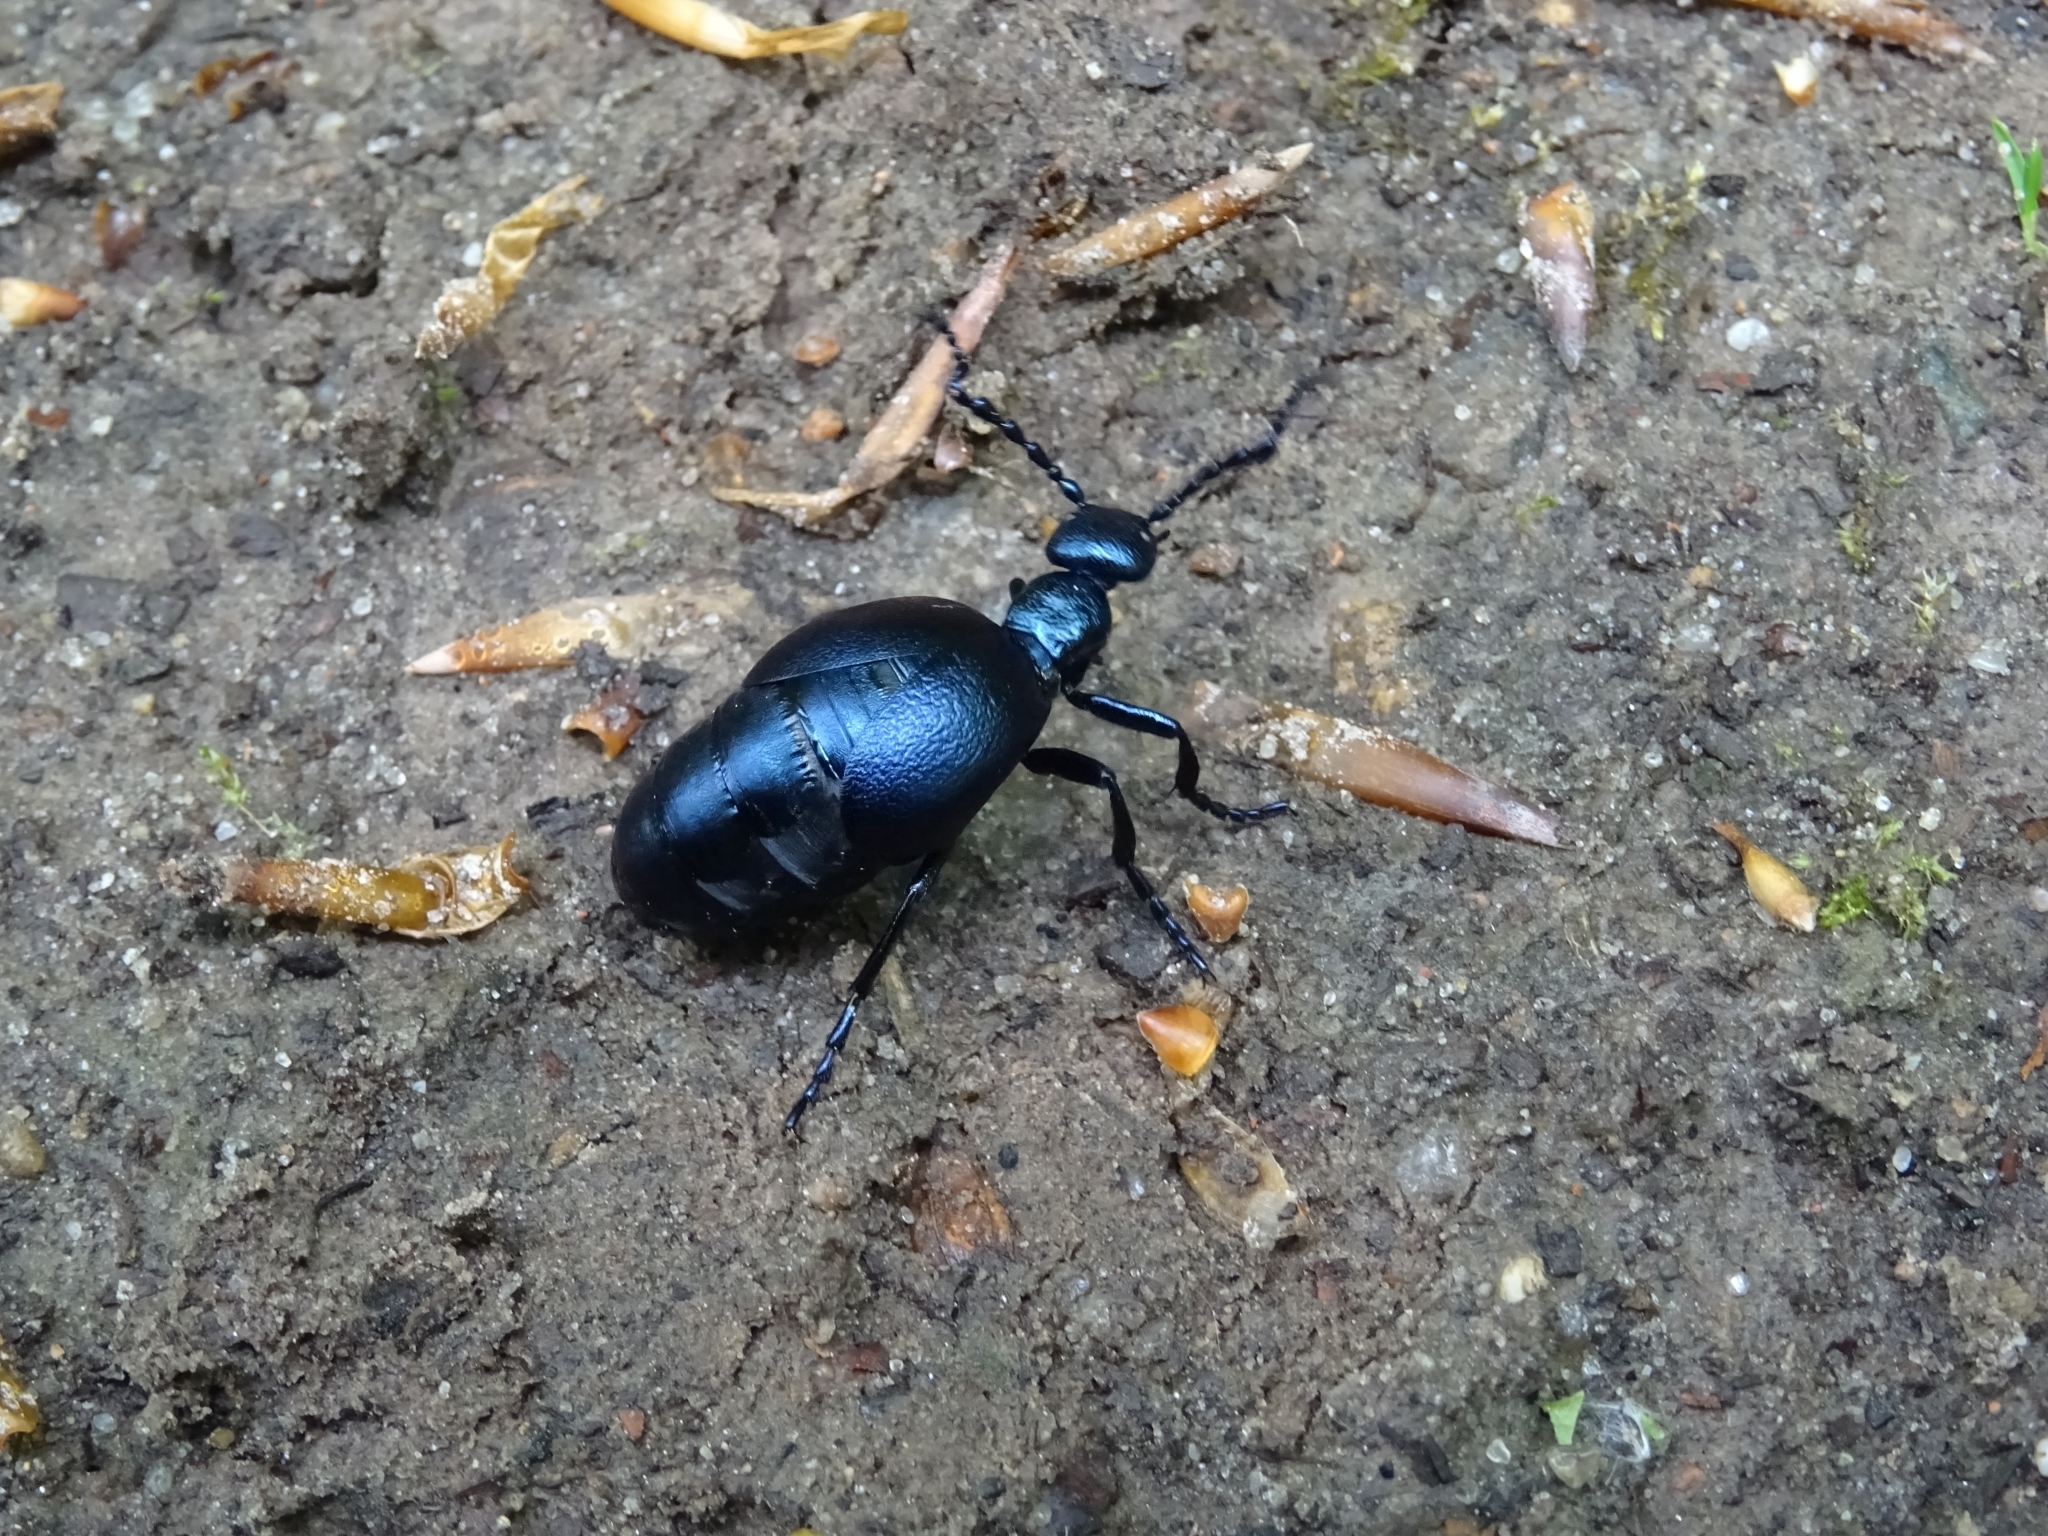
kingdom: Animalia
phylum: Arthropoda
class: Insecta
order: Coleoptera
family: Meloidae
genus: Meloe
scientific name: Meloe violaceus
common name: Violet oil-beetle
